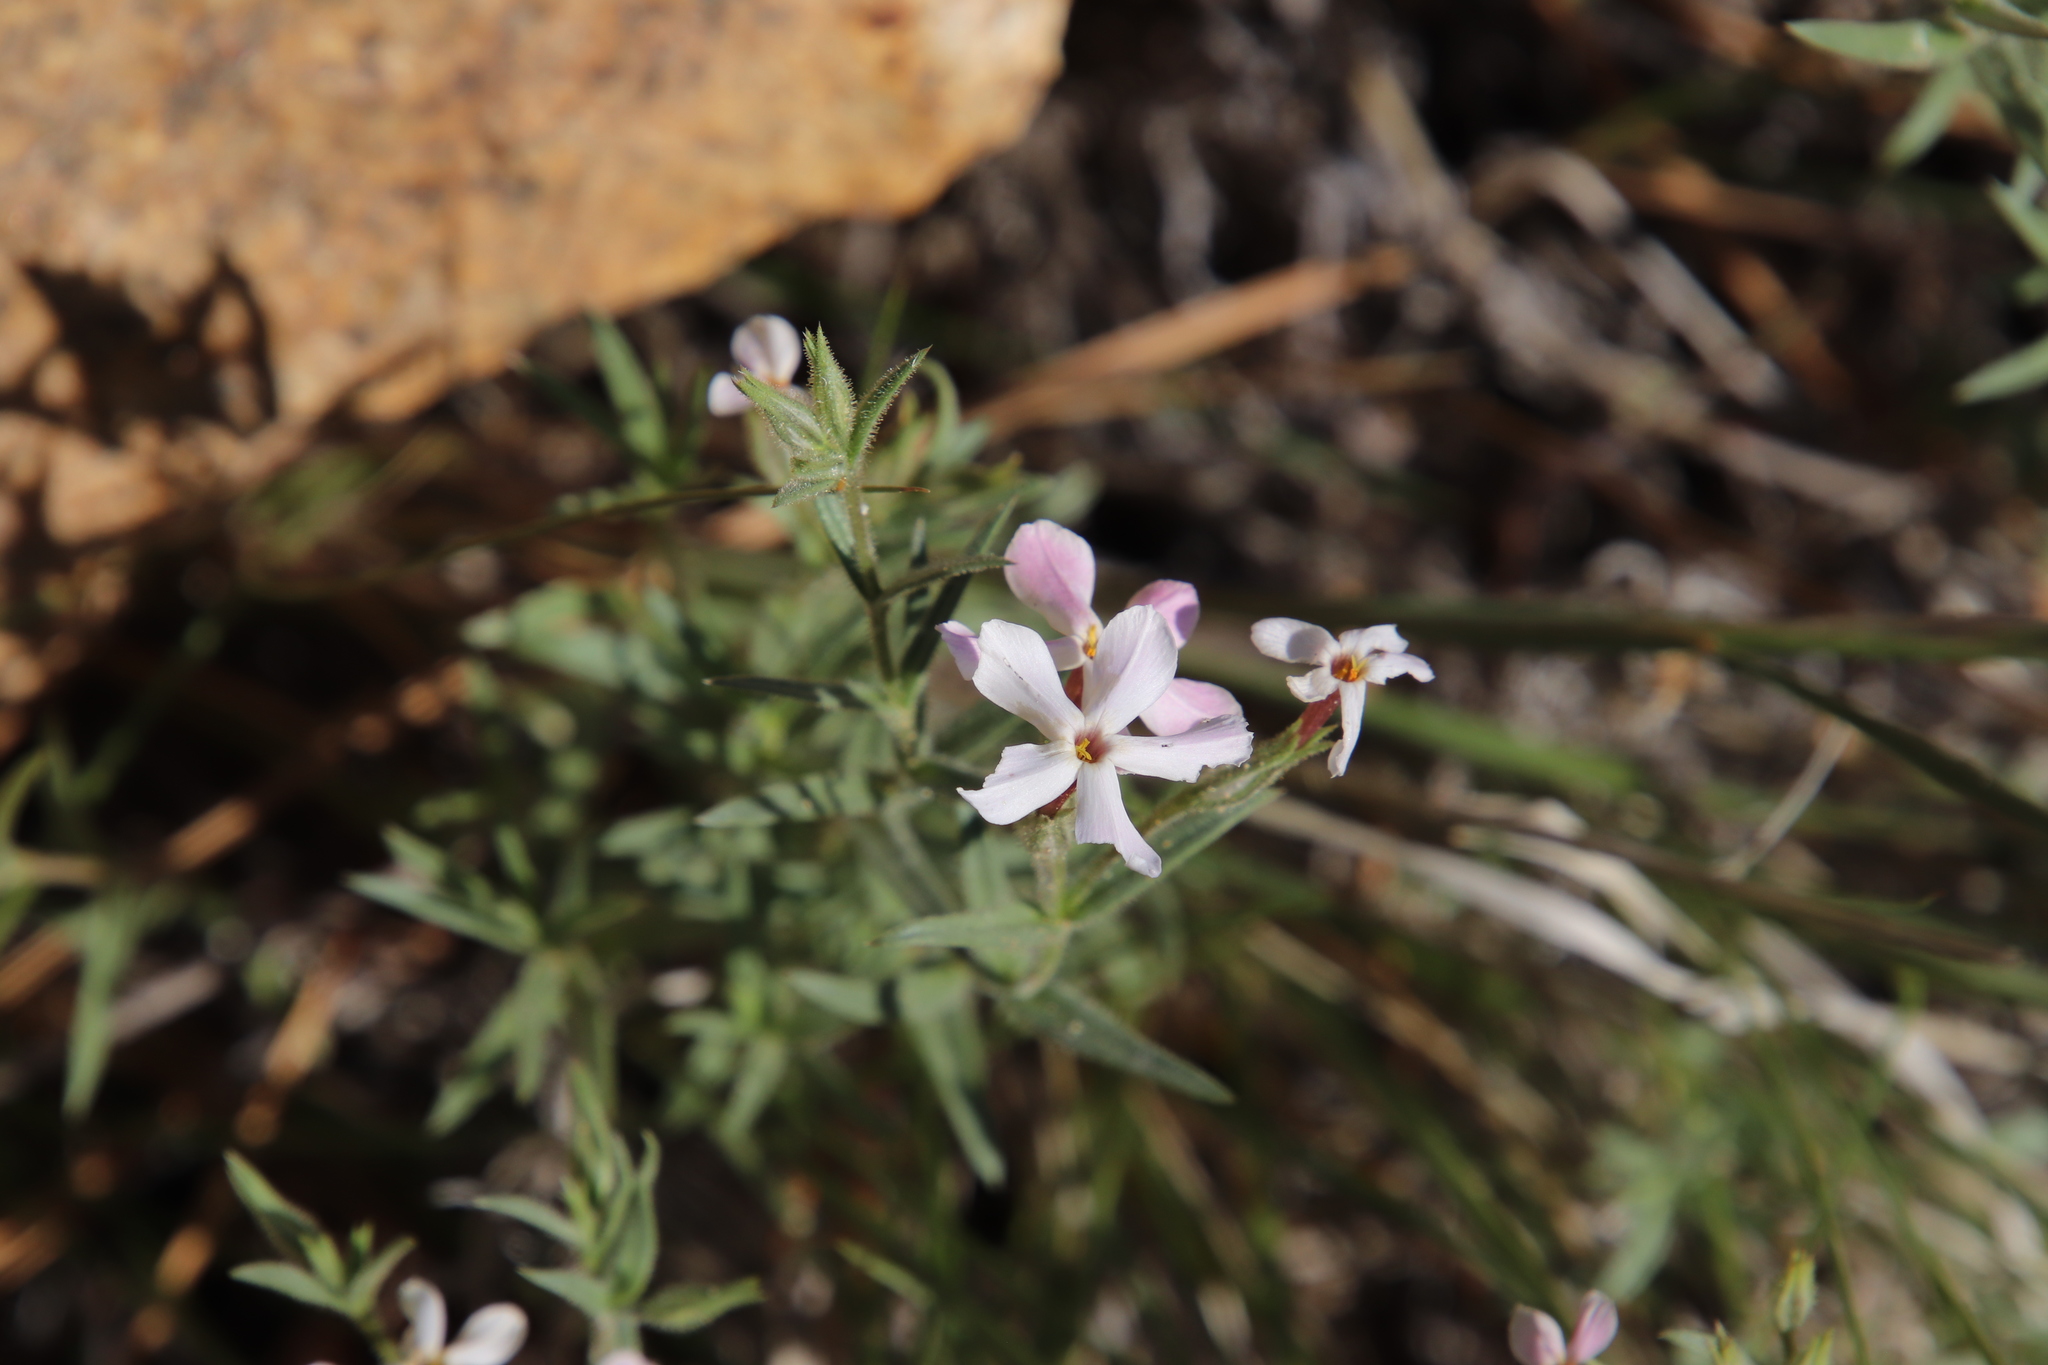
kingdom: Plantae
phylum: Tracheophyta
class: Magnoliopsida
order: Ericales
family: Polemoniaceae
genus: Phlox
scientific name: Phlox longifolia
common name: Longleaf phlox
